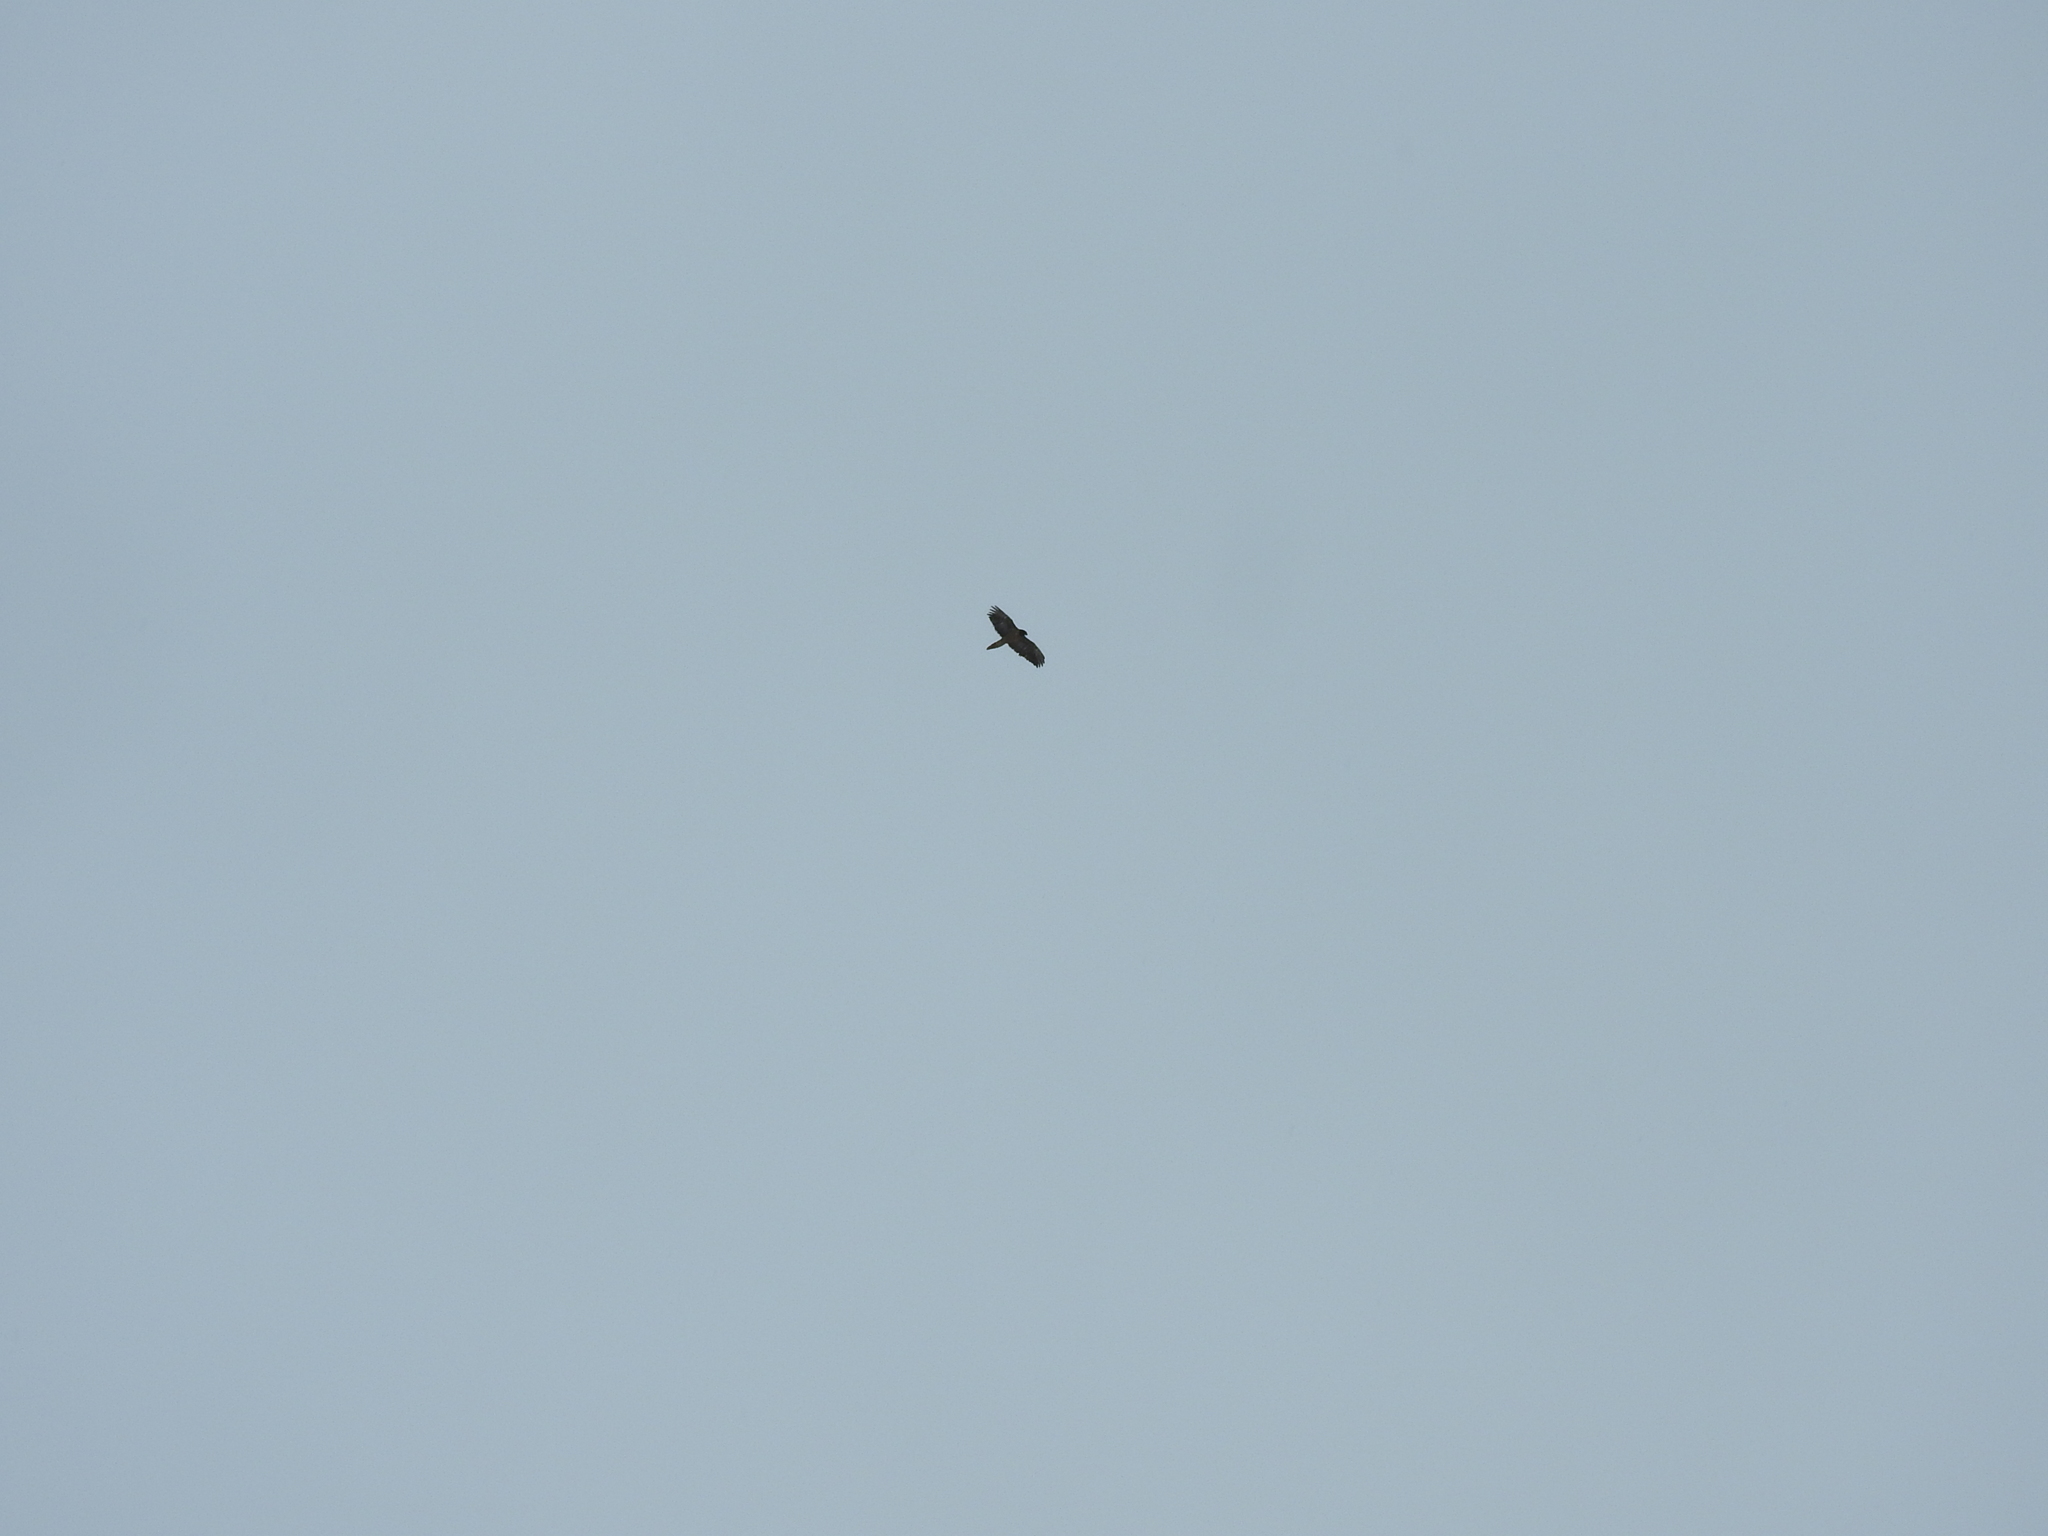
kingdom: Animalia
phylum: Chordata
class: Aves
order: Accipitriformes
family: Accipitridae
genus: Gypaetus
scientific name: Gypaetus barbatus
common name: Bearded vulture
